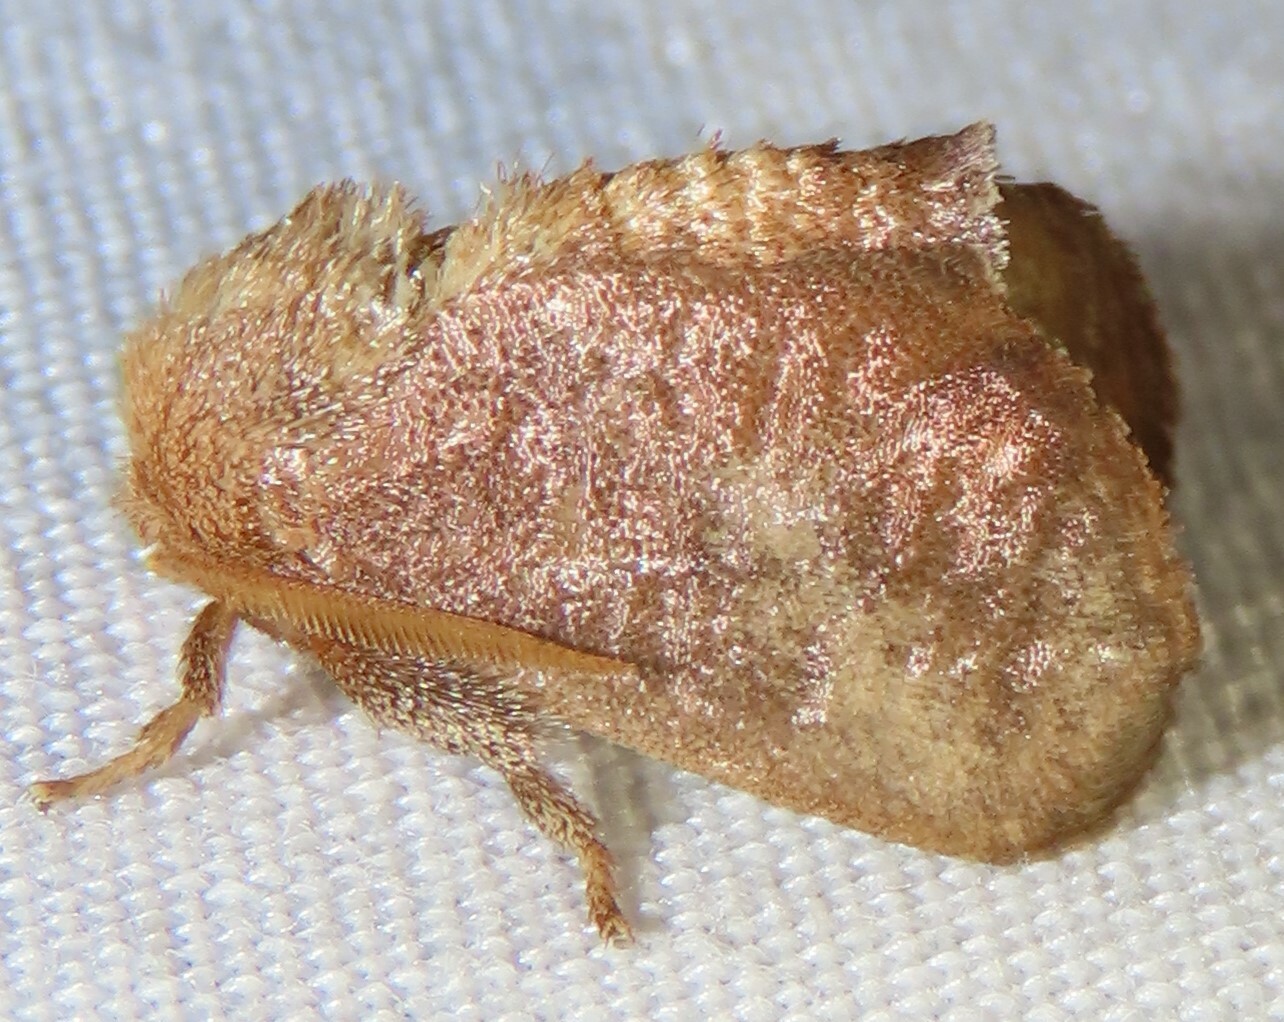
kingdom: Animalia
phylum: Arthropoda
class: Insecta
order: Lepidoptera
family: Limacodidae
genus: Isa
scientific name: Isa textula
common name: Crowned slug moth
